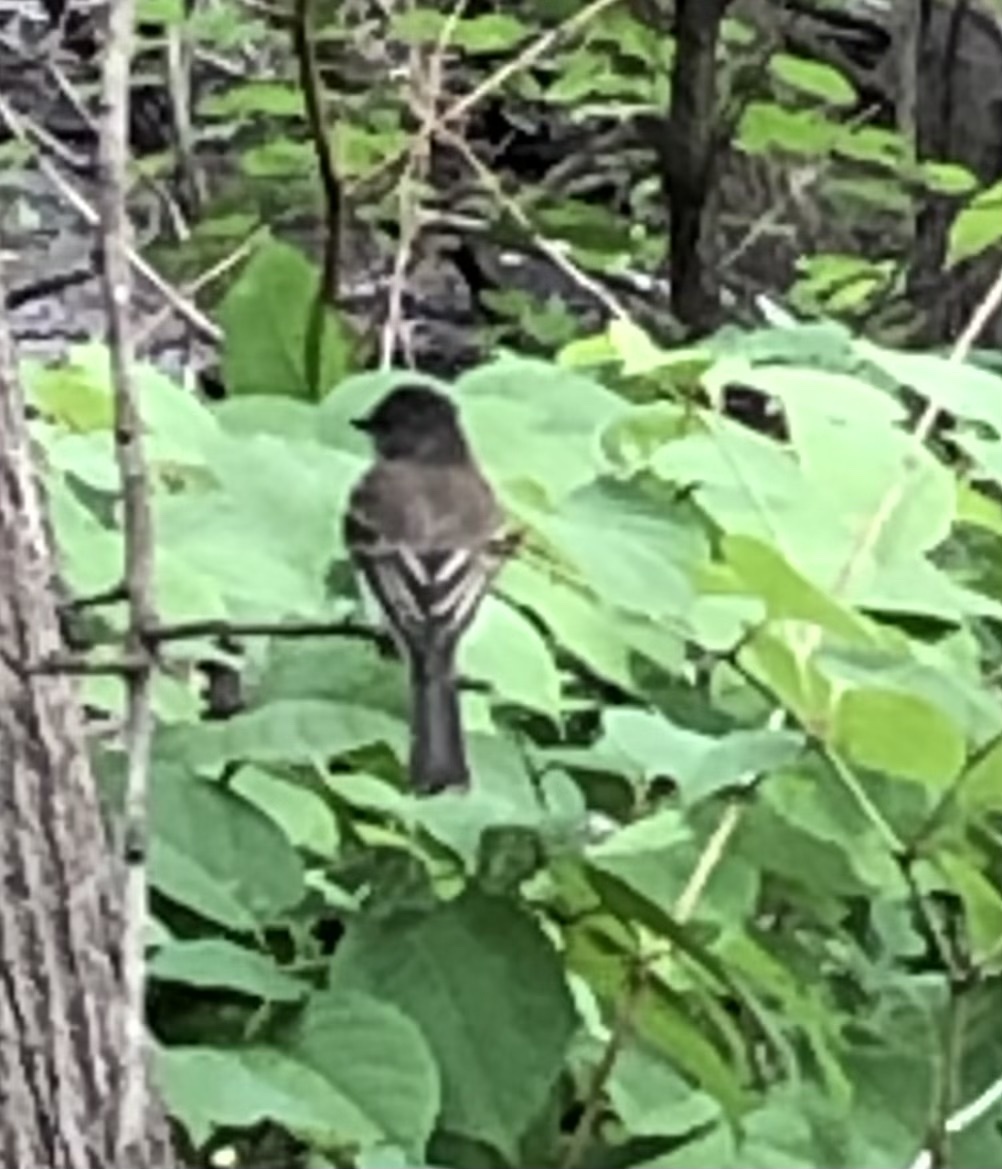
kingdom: Animalia
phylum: Chordata
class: Aves
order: Passeriformes
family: Tyrannidae
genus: Sayornis
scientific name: Sayornis phoebe
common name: Eastern phoebe
